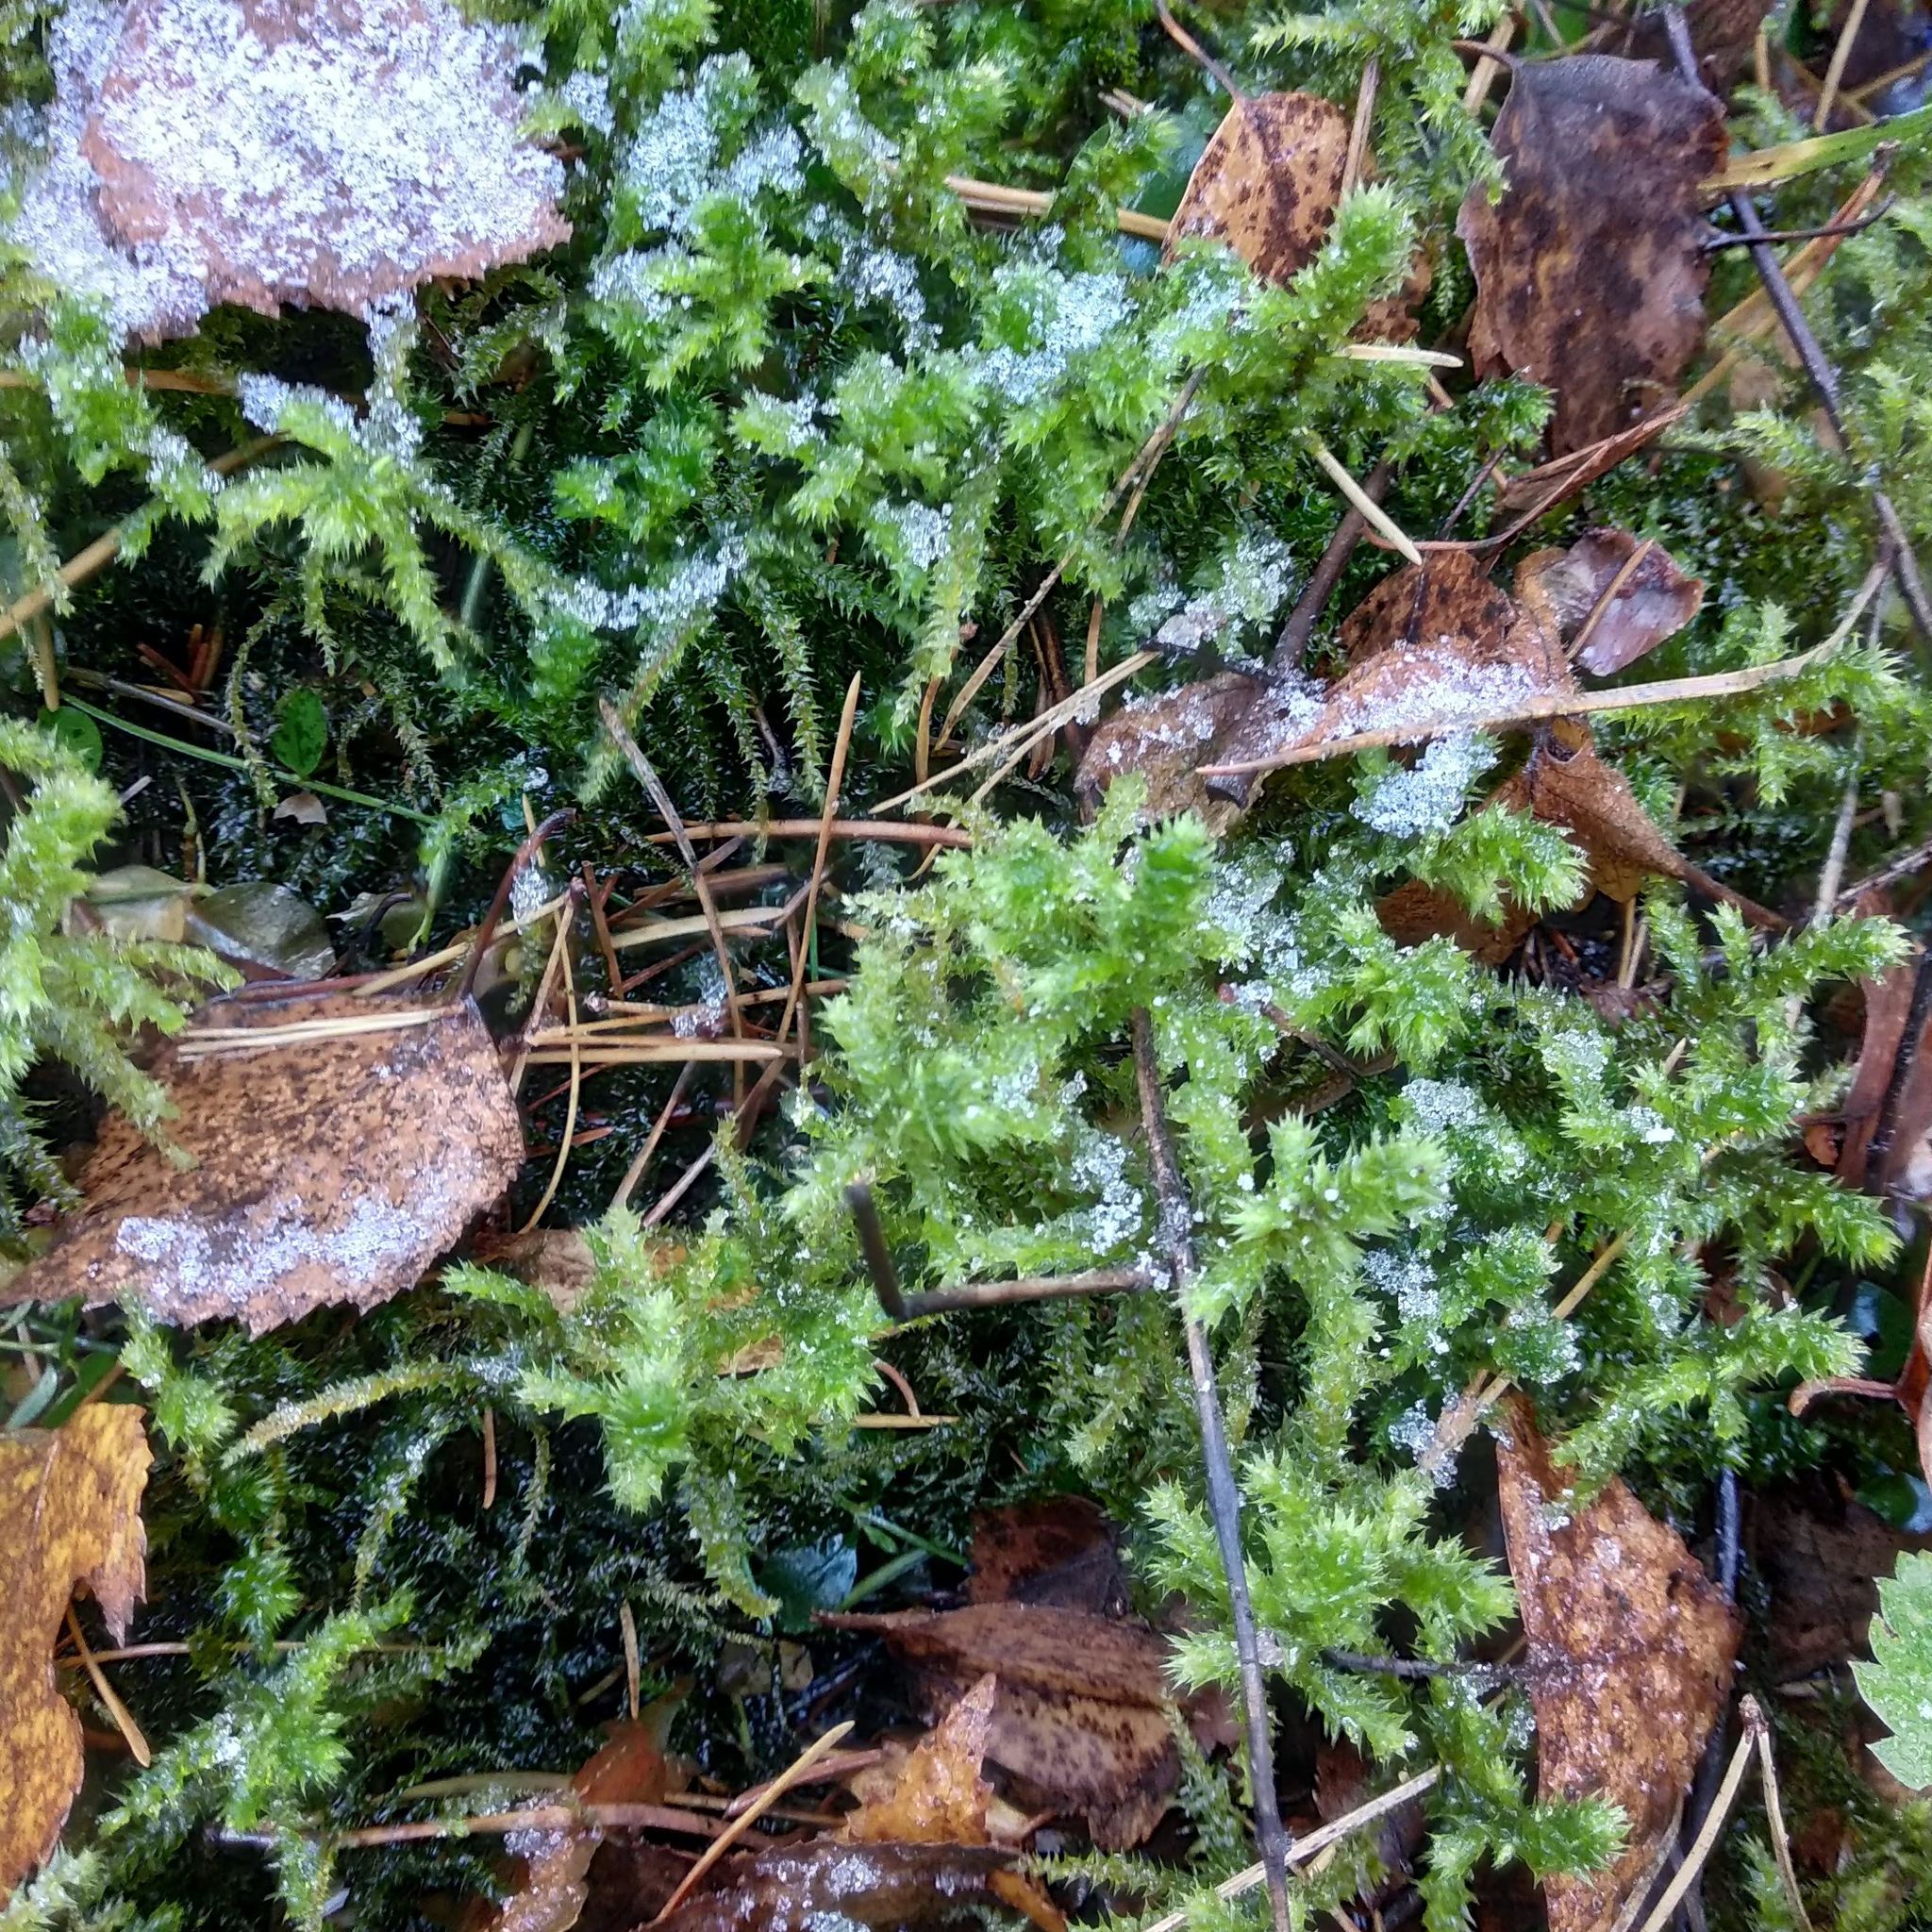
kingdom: Plantae
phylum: Bryophyta
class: Bryopsida
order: Hypnales
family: Hylocomiaceae
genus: Hylocomiadelphus
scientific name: Hylocomiadelphus triquetrus
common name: Rough goose neck moss
